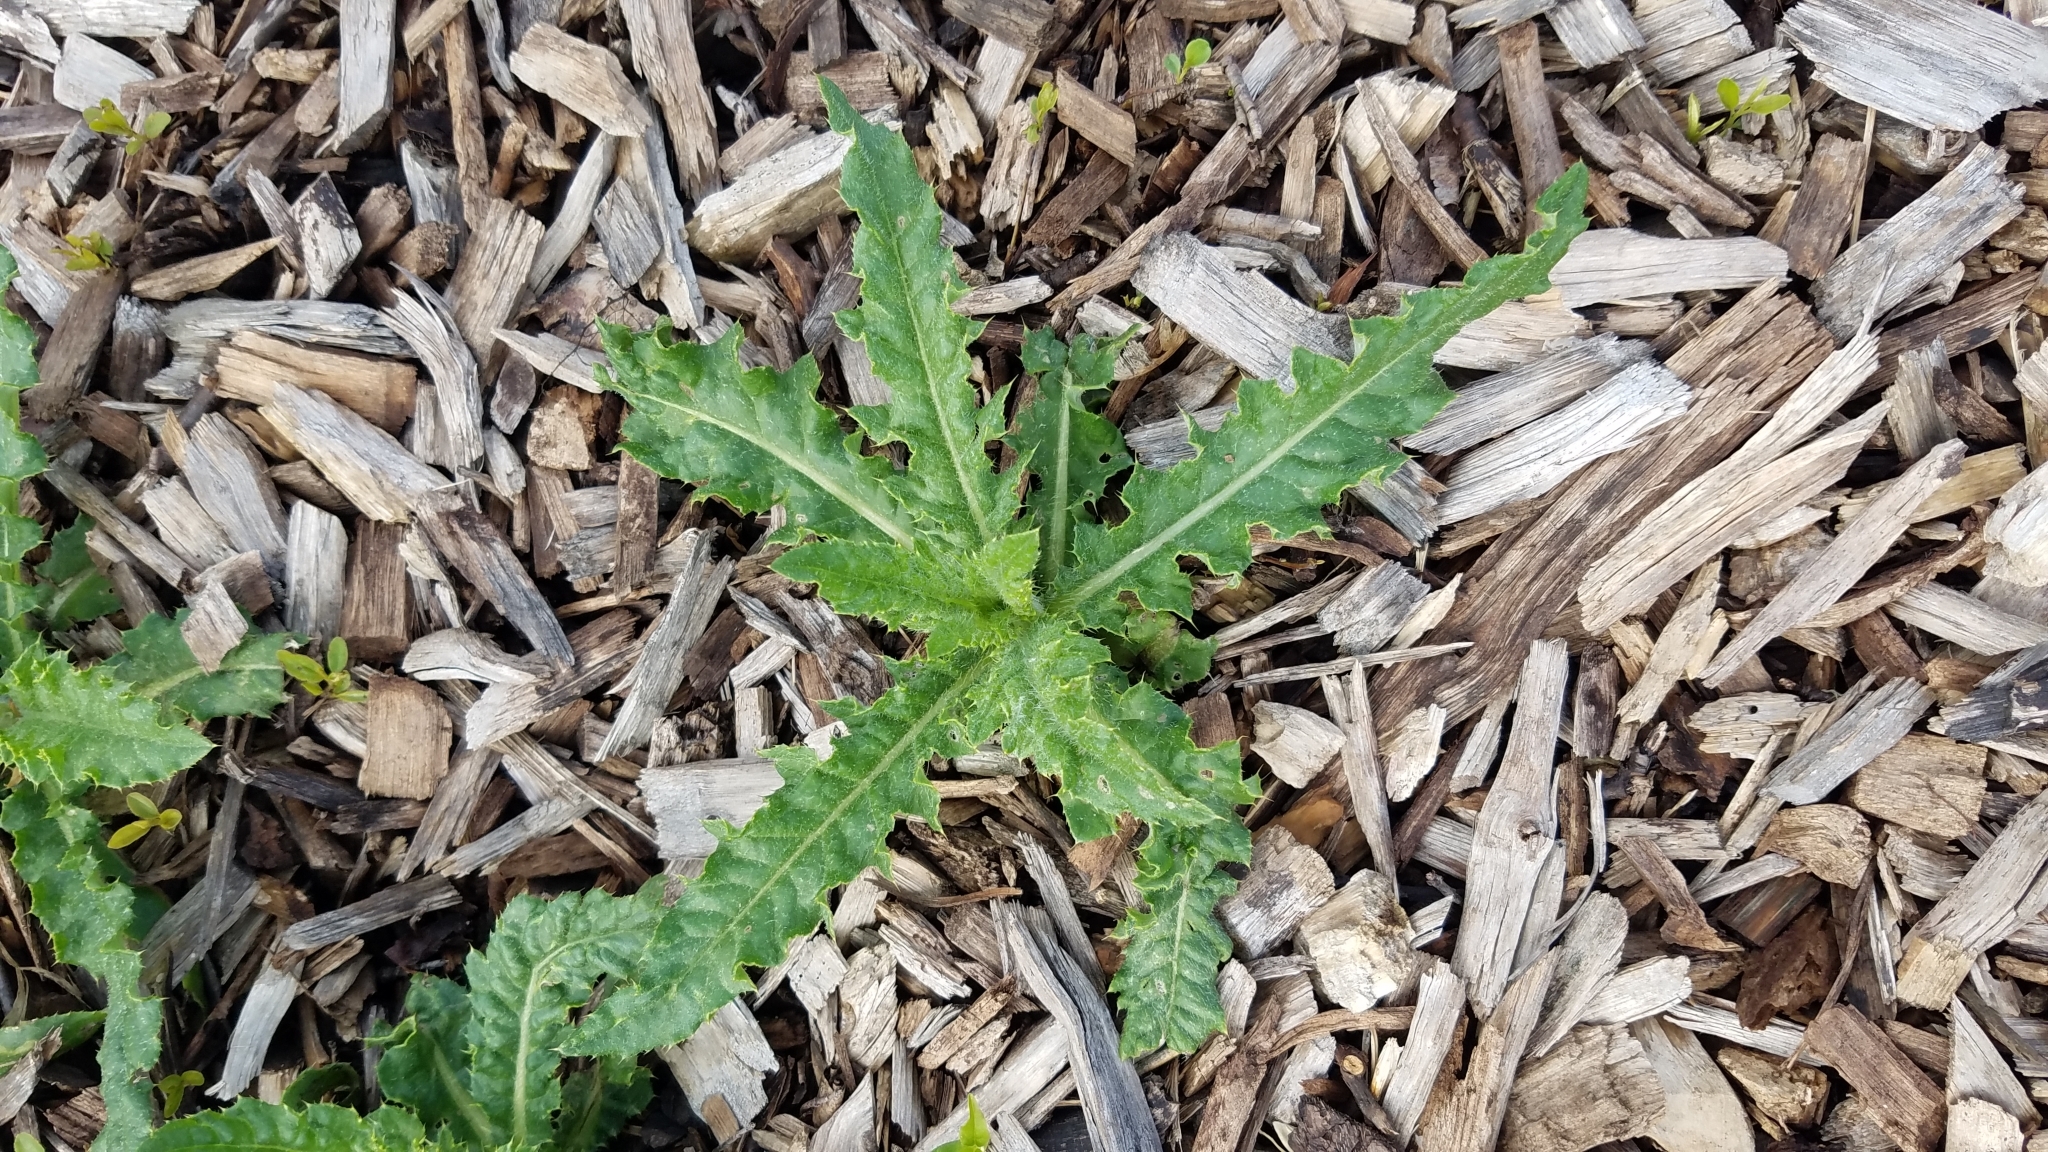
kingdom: Plantae
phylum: Tracheophyta
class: Magnoliopsida
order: Asterales
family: Asteraceae
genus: Cirsium
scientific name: Cirsium arvense
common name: Creeping thistle
